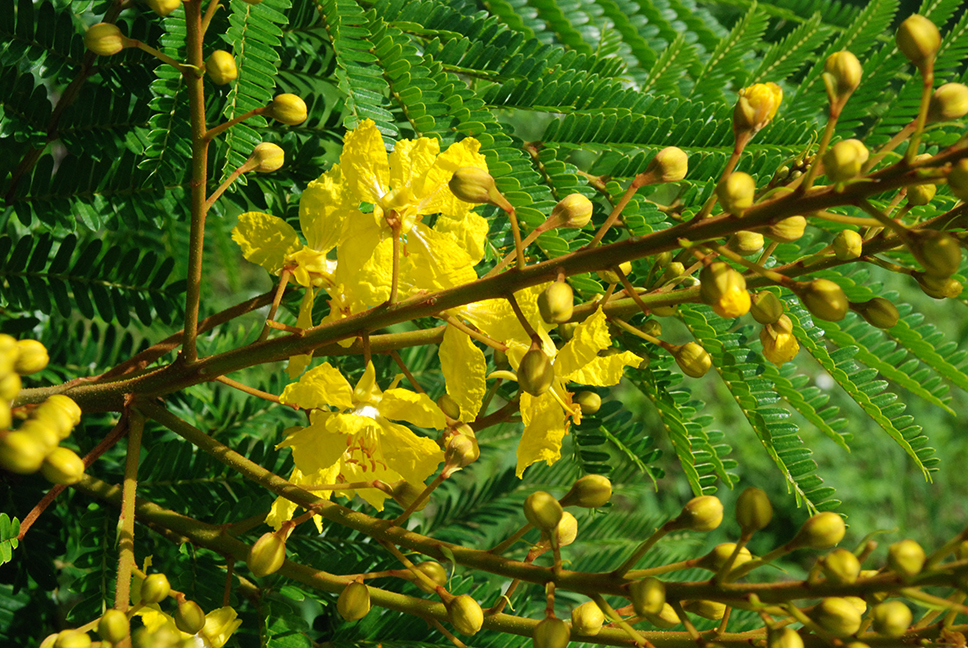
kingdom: Plantae
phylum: Tracheophyta
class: Magnoliopsida
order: Fabales
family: Fabaceae
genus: Peltophorum
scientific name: Peltophorum dubium
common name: Horsebush
